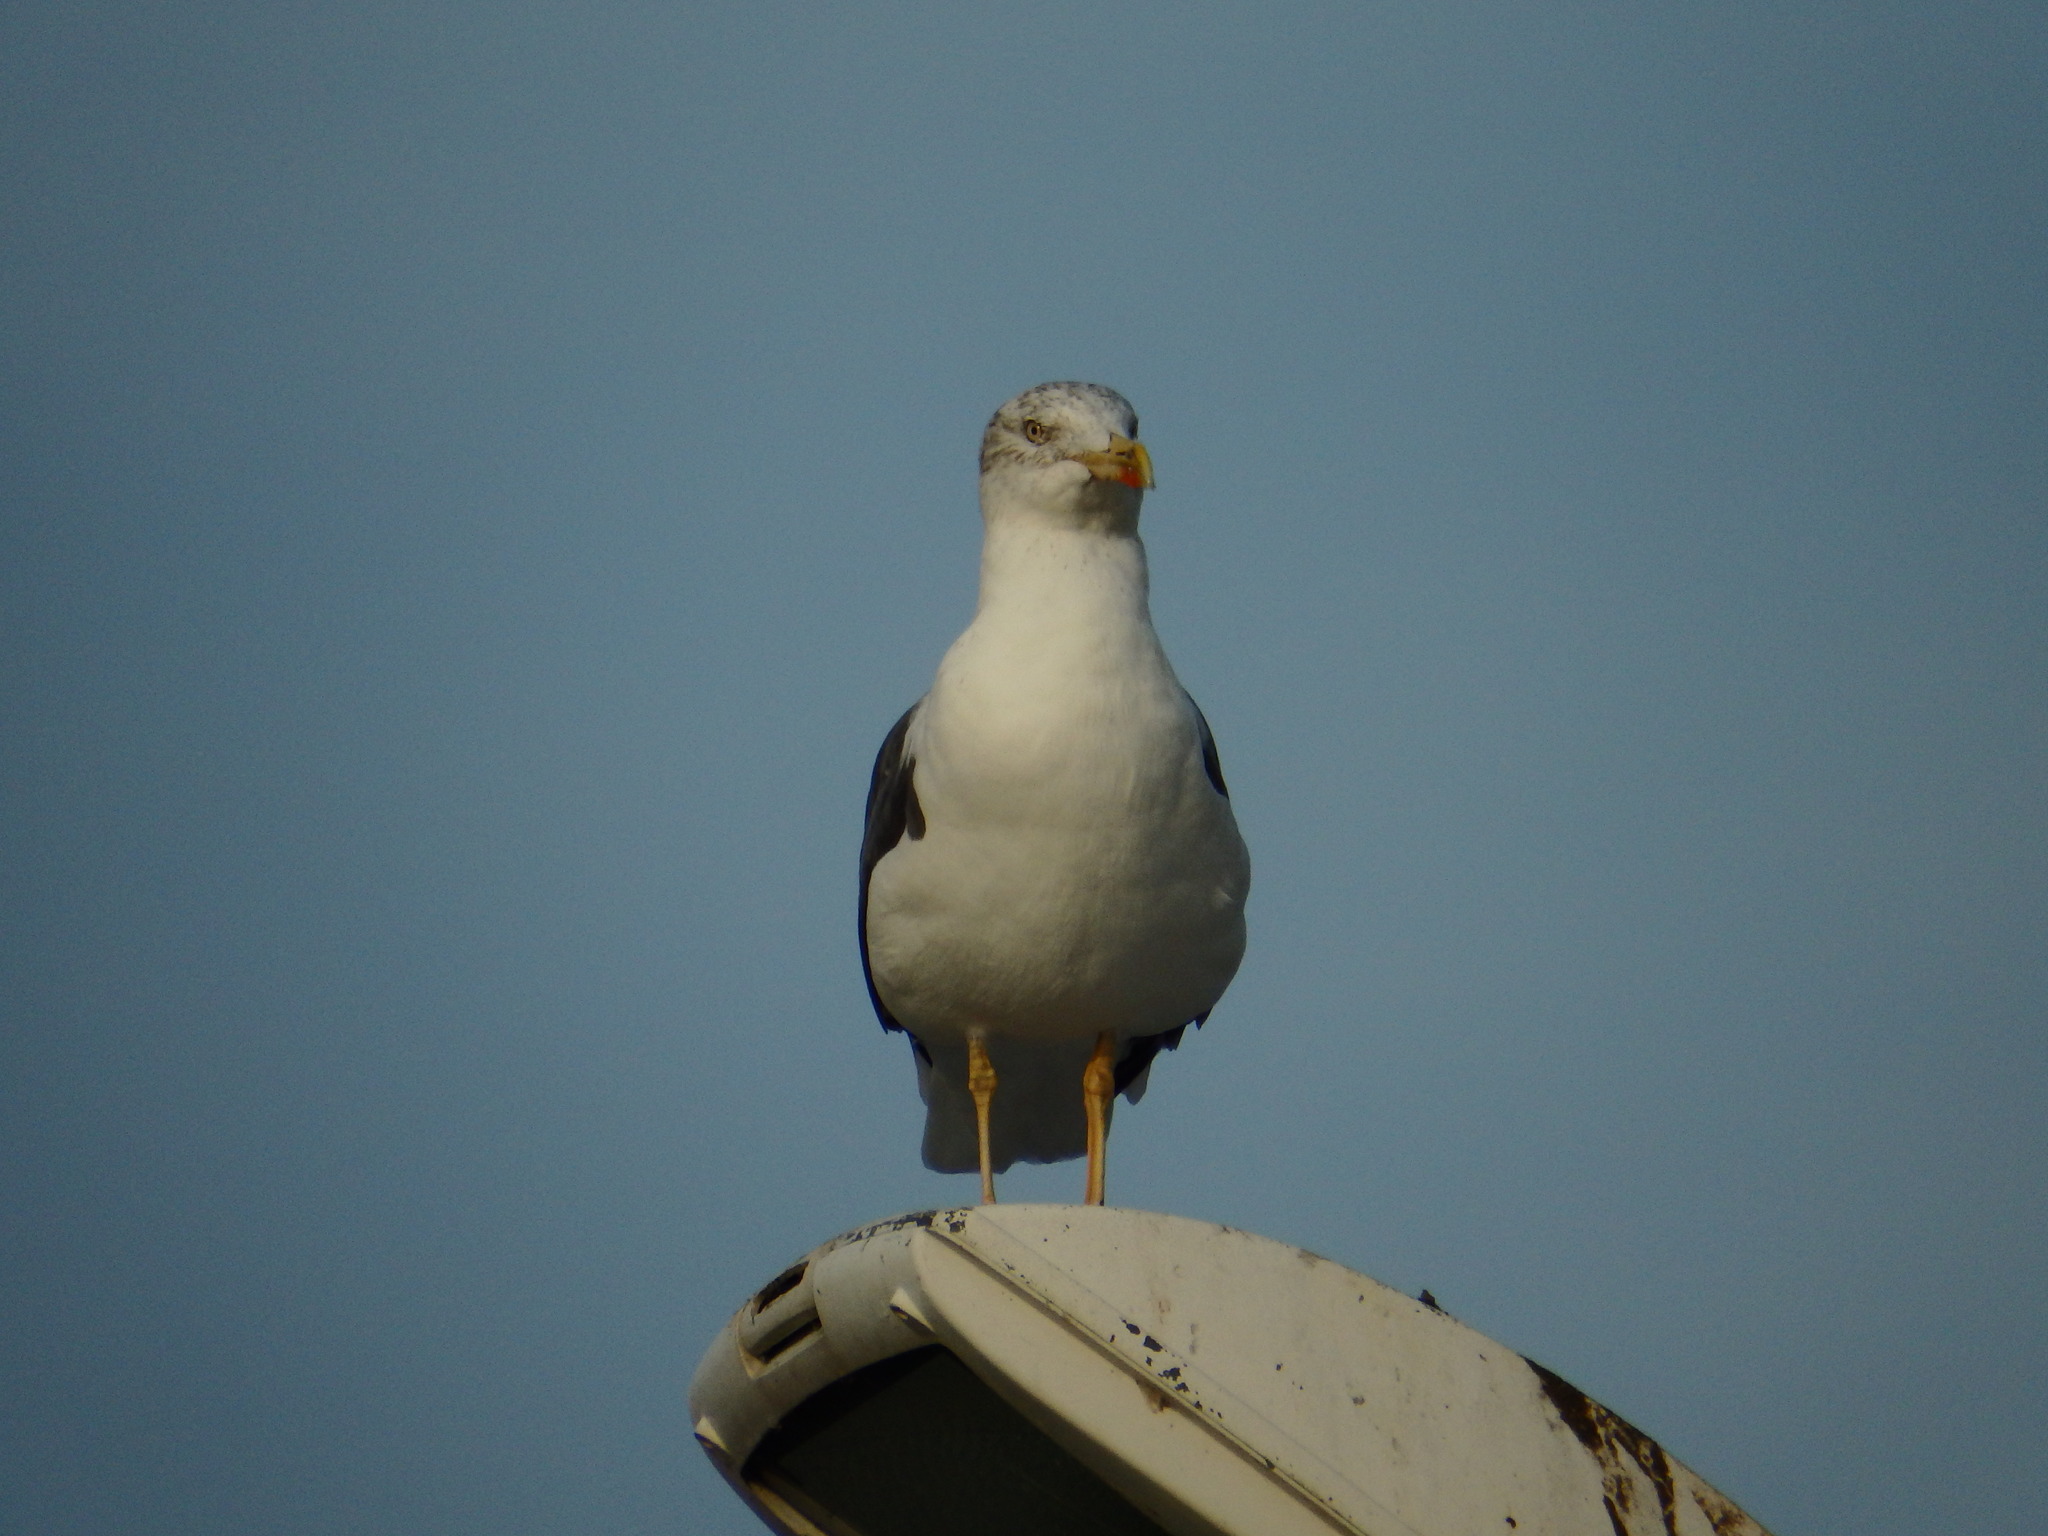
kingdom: Animalia
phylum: Chordata
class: Aves
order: Charadriiformes
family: Laridae
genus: Larus
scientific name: Larus fuscus
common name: Lesser black-backed gull
